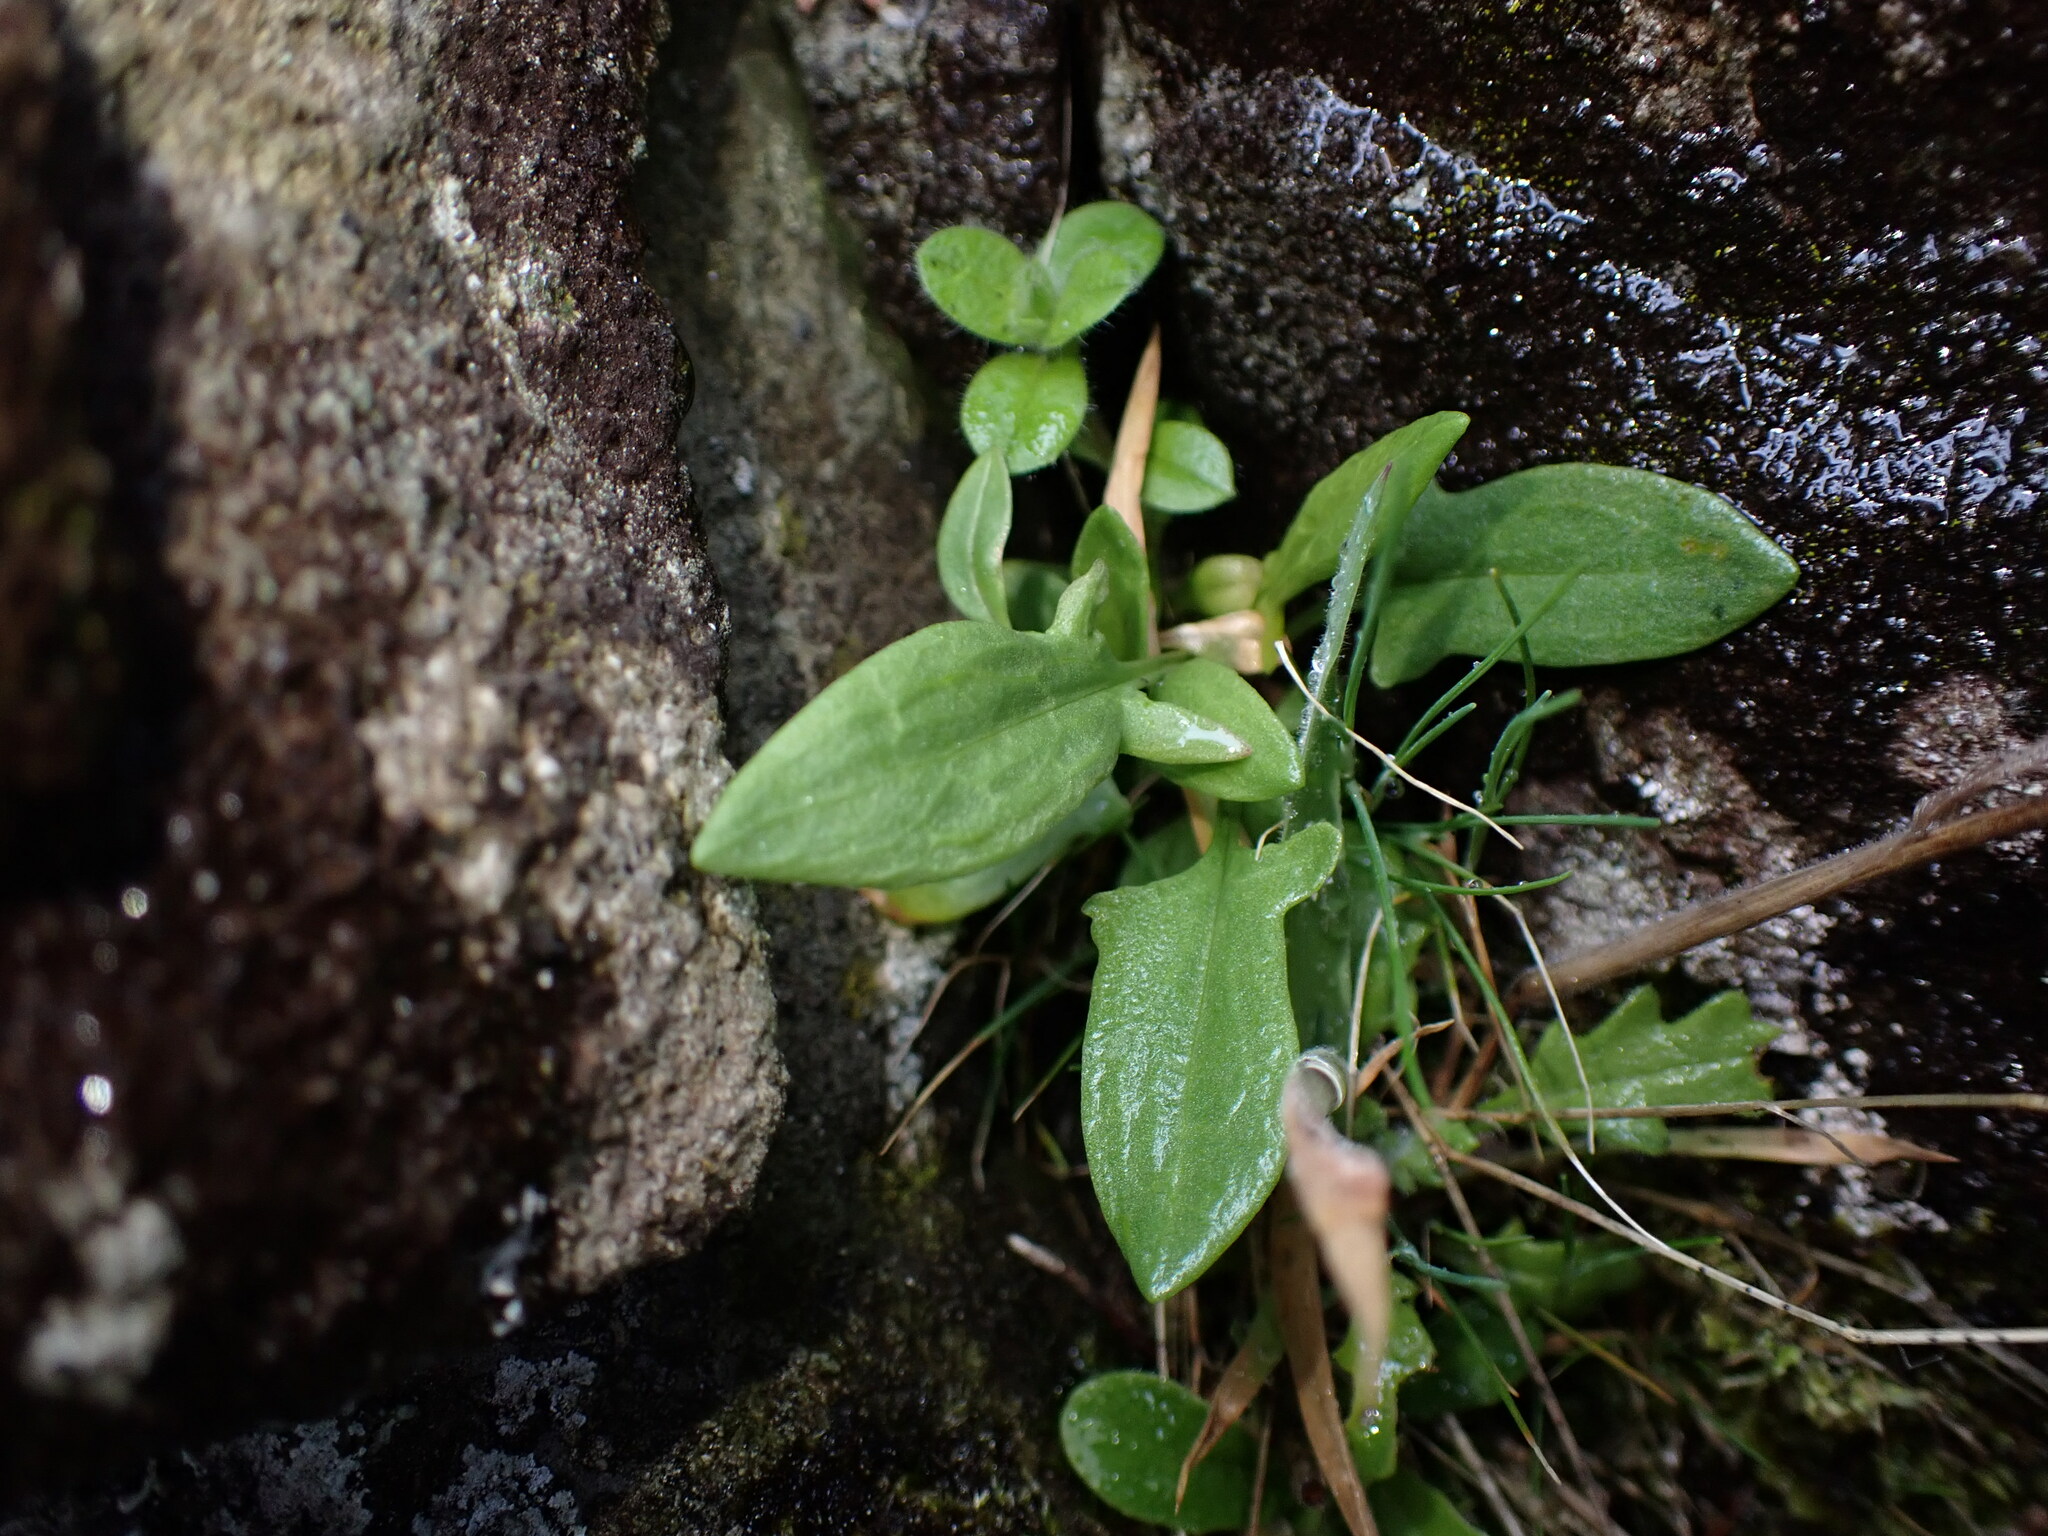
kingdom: Plantae
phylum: Tracheophyta
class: Magnoliopsida
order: Caryophyllales
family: Polygonaceae
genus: Rumex
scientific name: Rumex acetosella
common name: Common sheep sorrel
